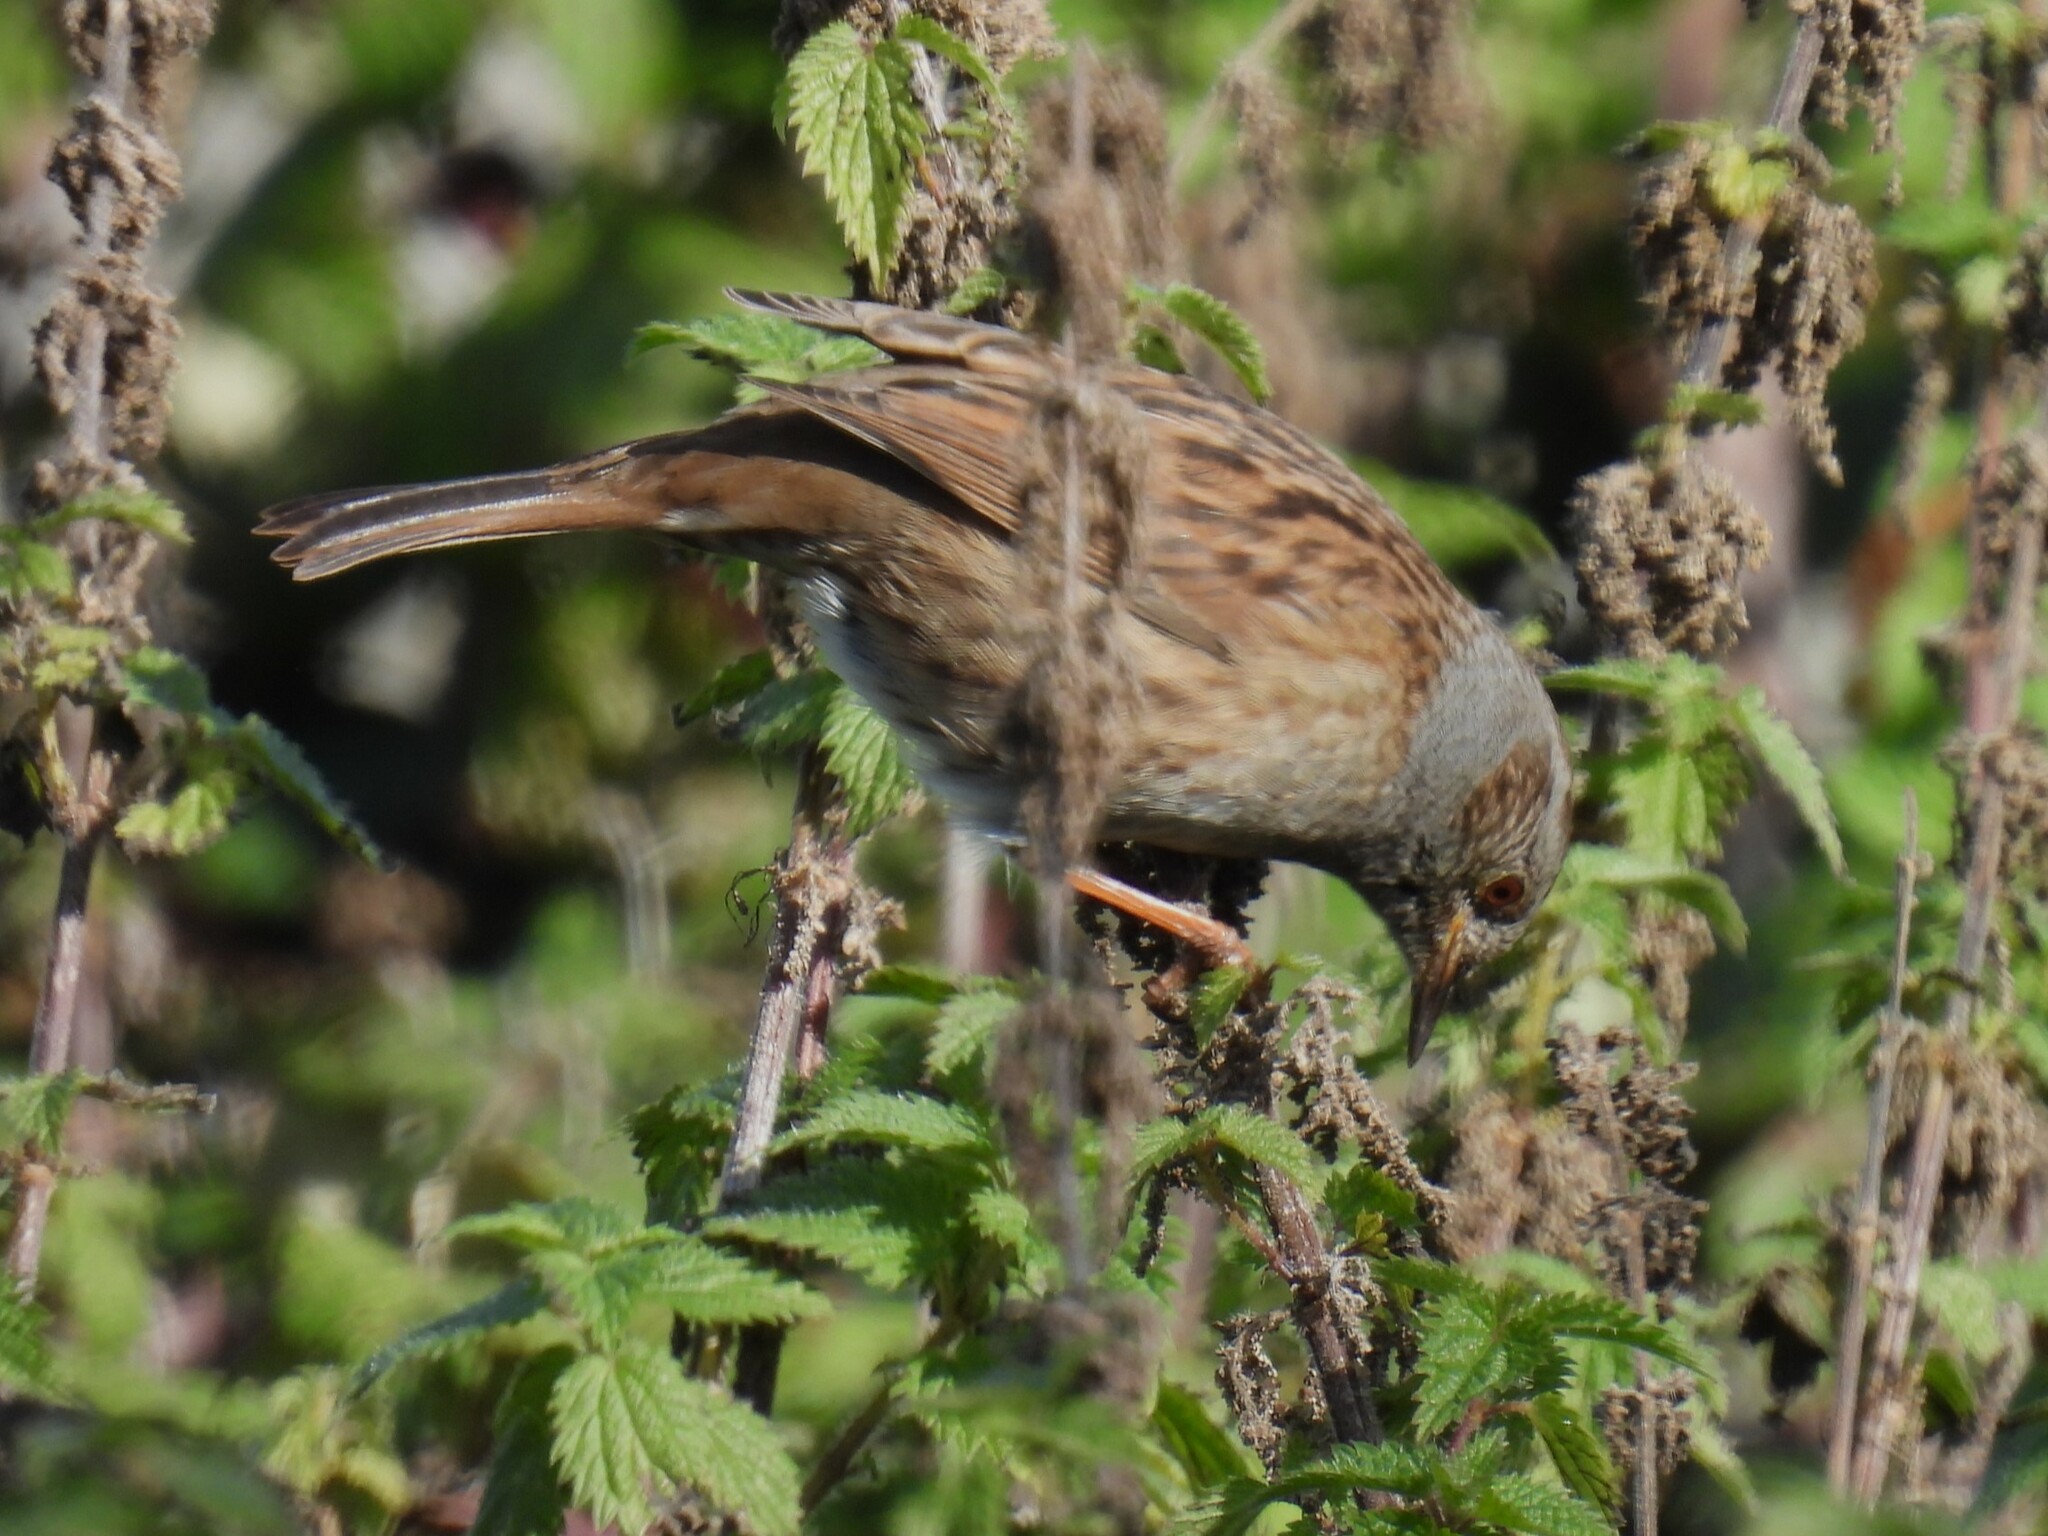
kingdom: Animalia
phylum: Chordata
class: Aves
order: Passeriformes
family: Prunellidae
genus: Prunella
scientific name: Prunella modularis
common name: Dunnock
